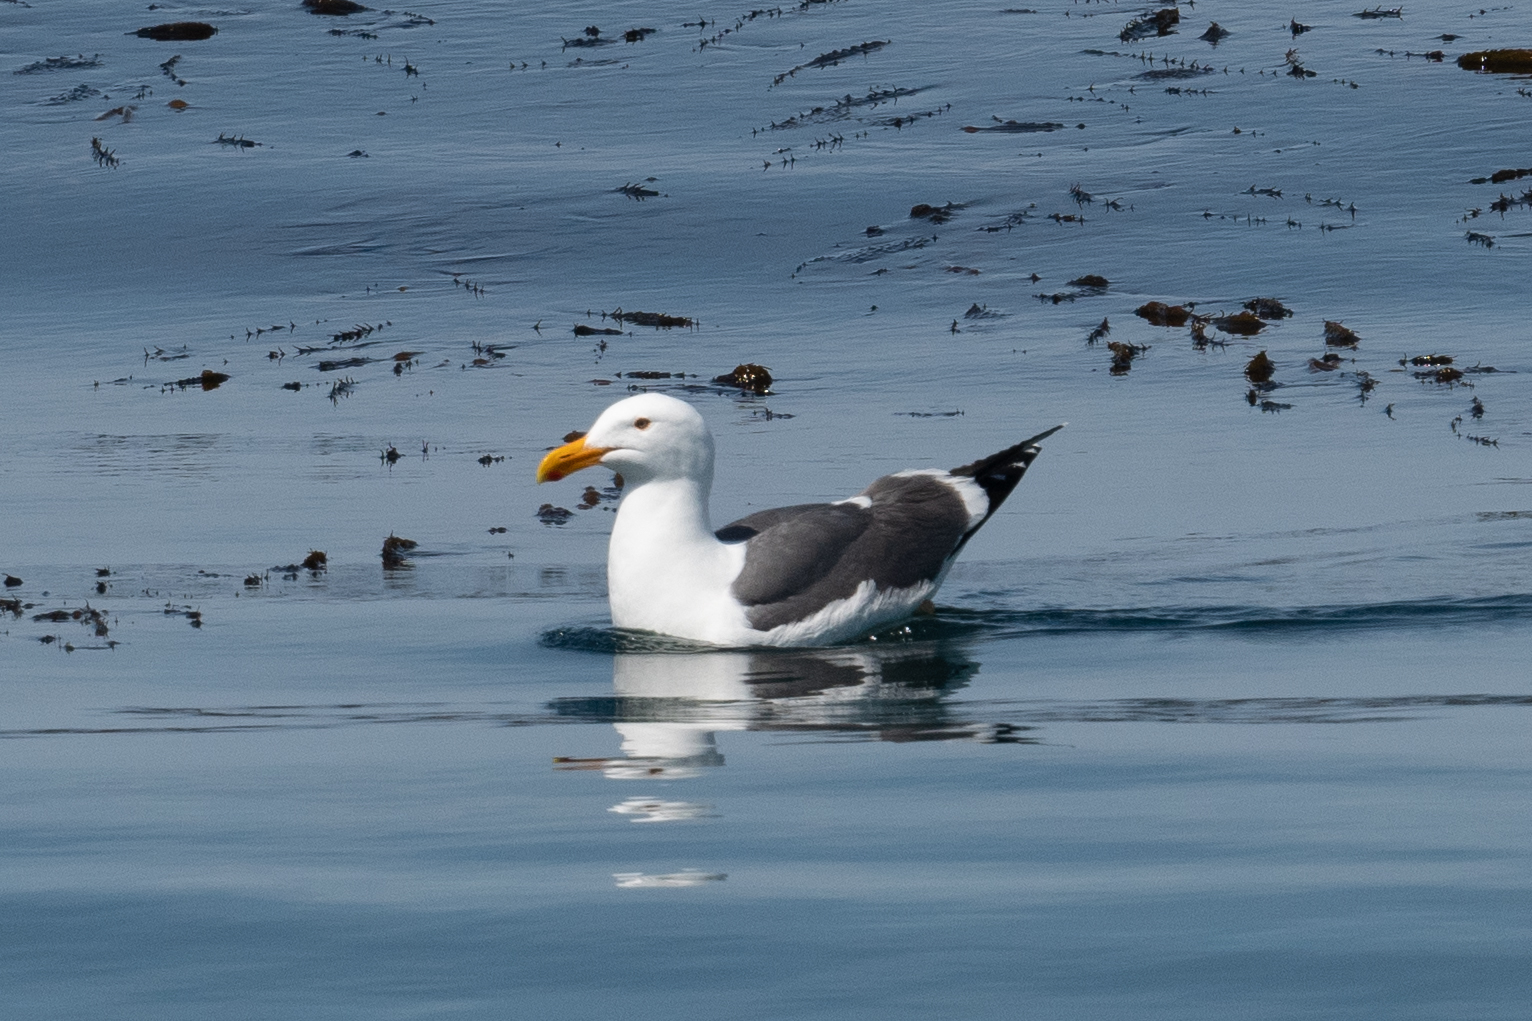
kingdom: Animalia
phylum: Chordata
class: Aves
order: Charadriiformes
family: Laridae
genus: Larus
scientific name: Larus occidentalis
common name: Western gull
